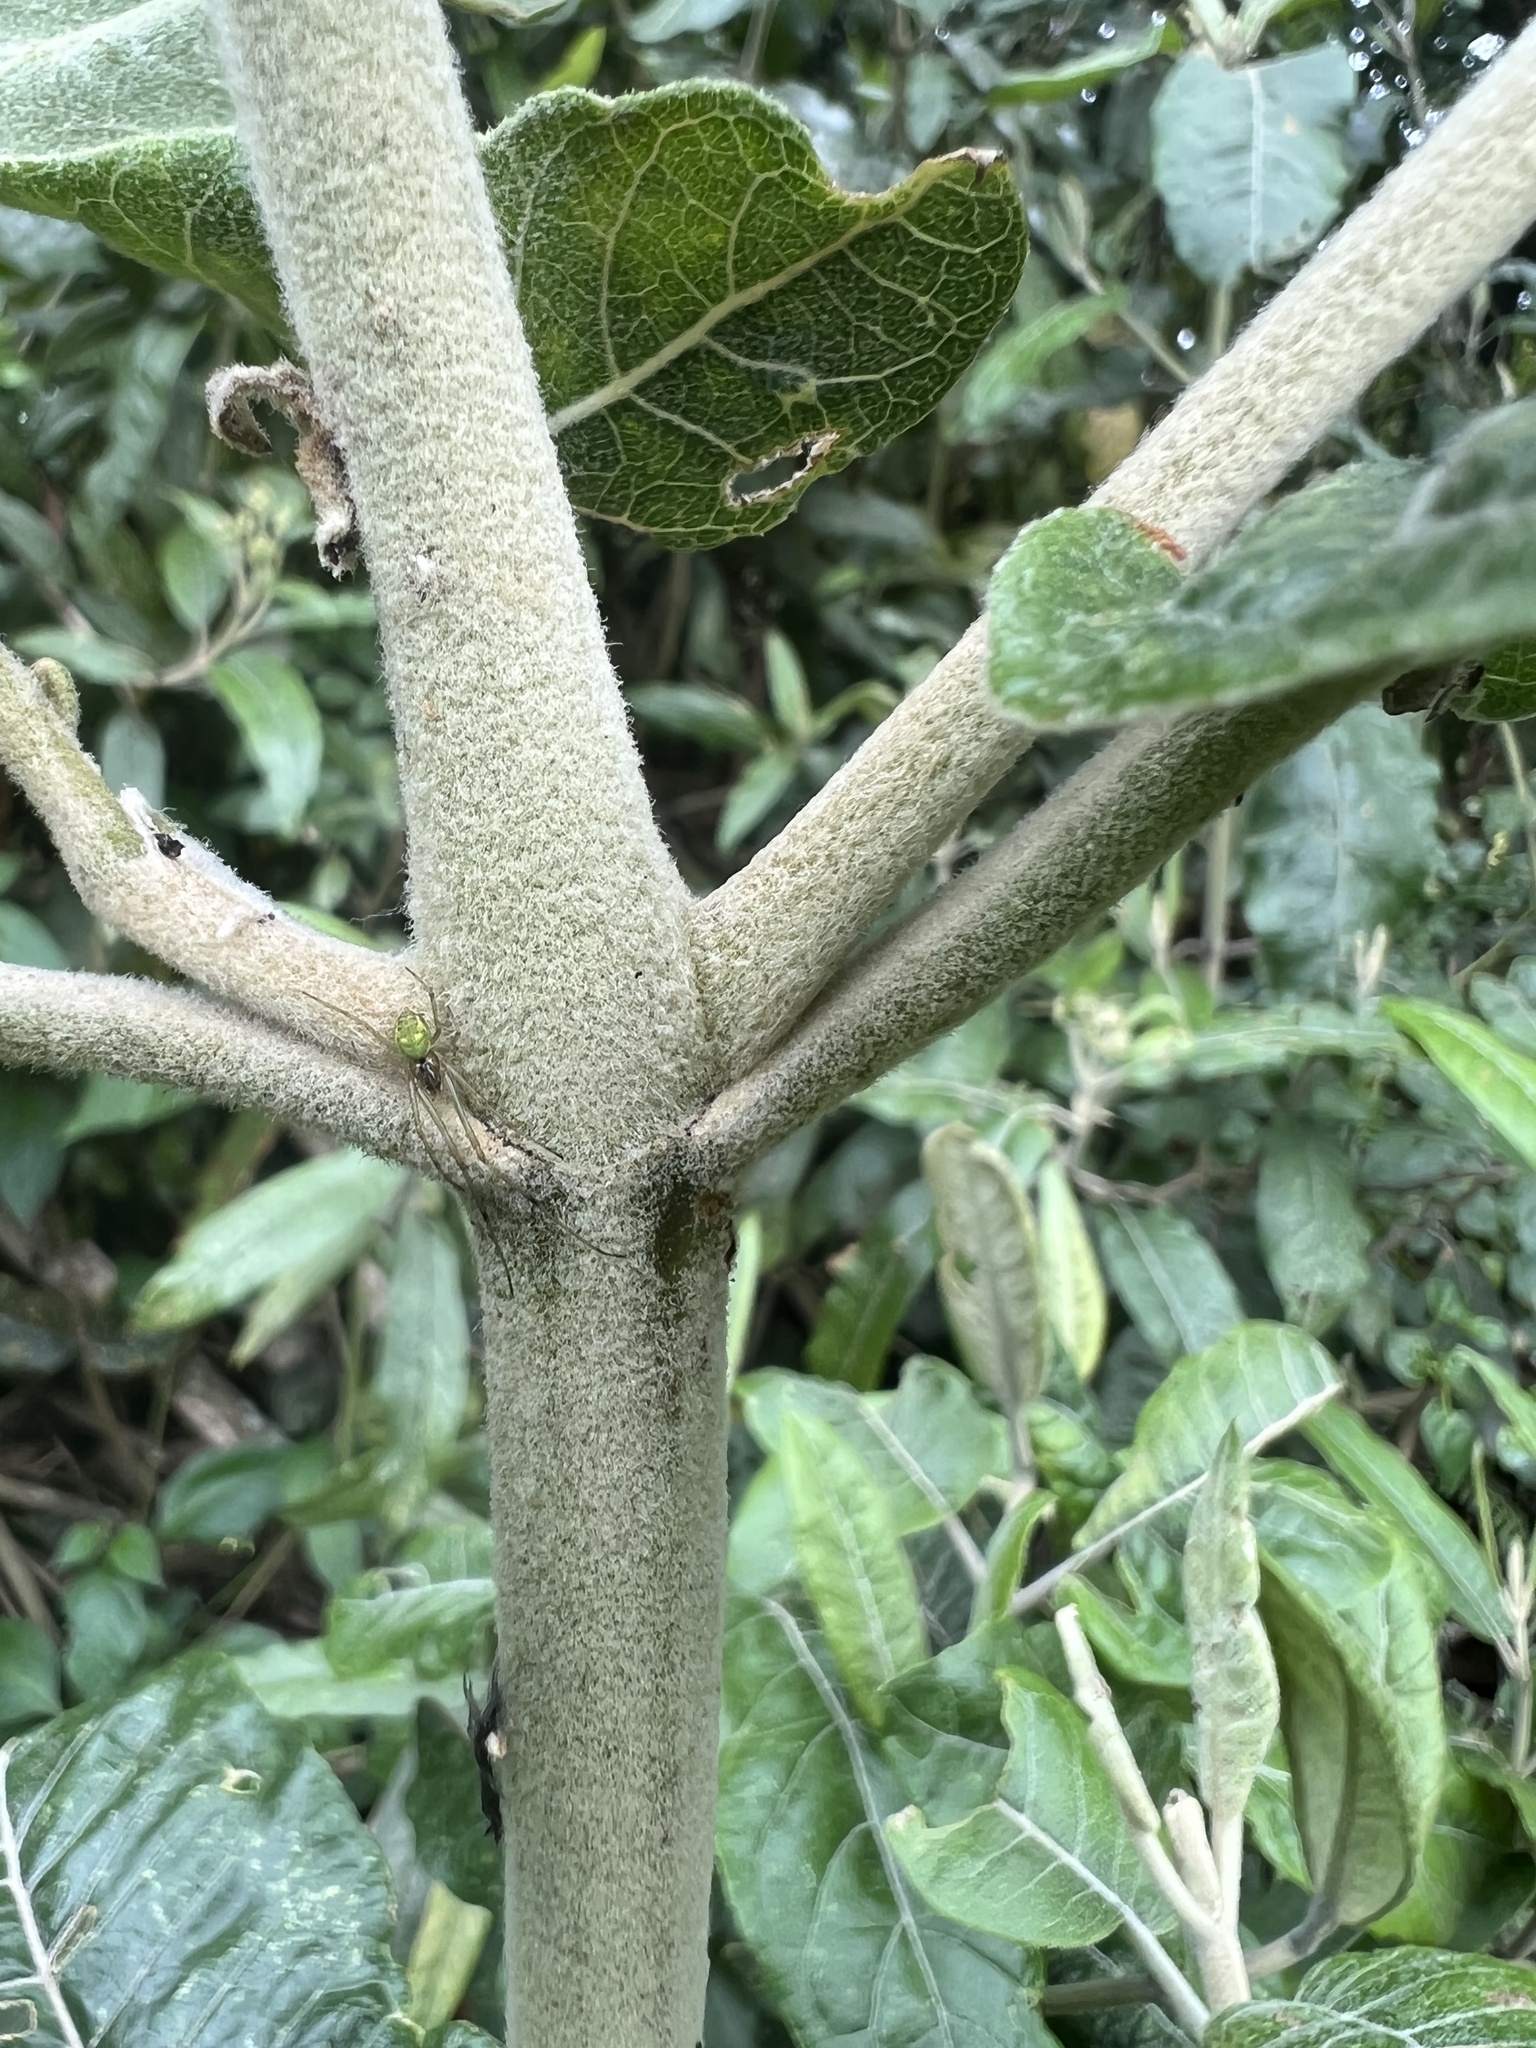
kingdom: Plantae
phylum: Tracheophyta
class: Magnoliopsida
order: Asterales
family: Asteraceae
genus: Ageratina
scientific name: Ageratina asclepiadea
